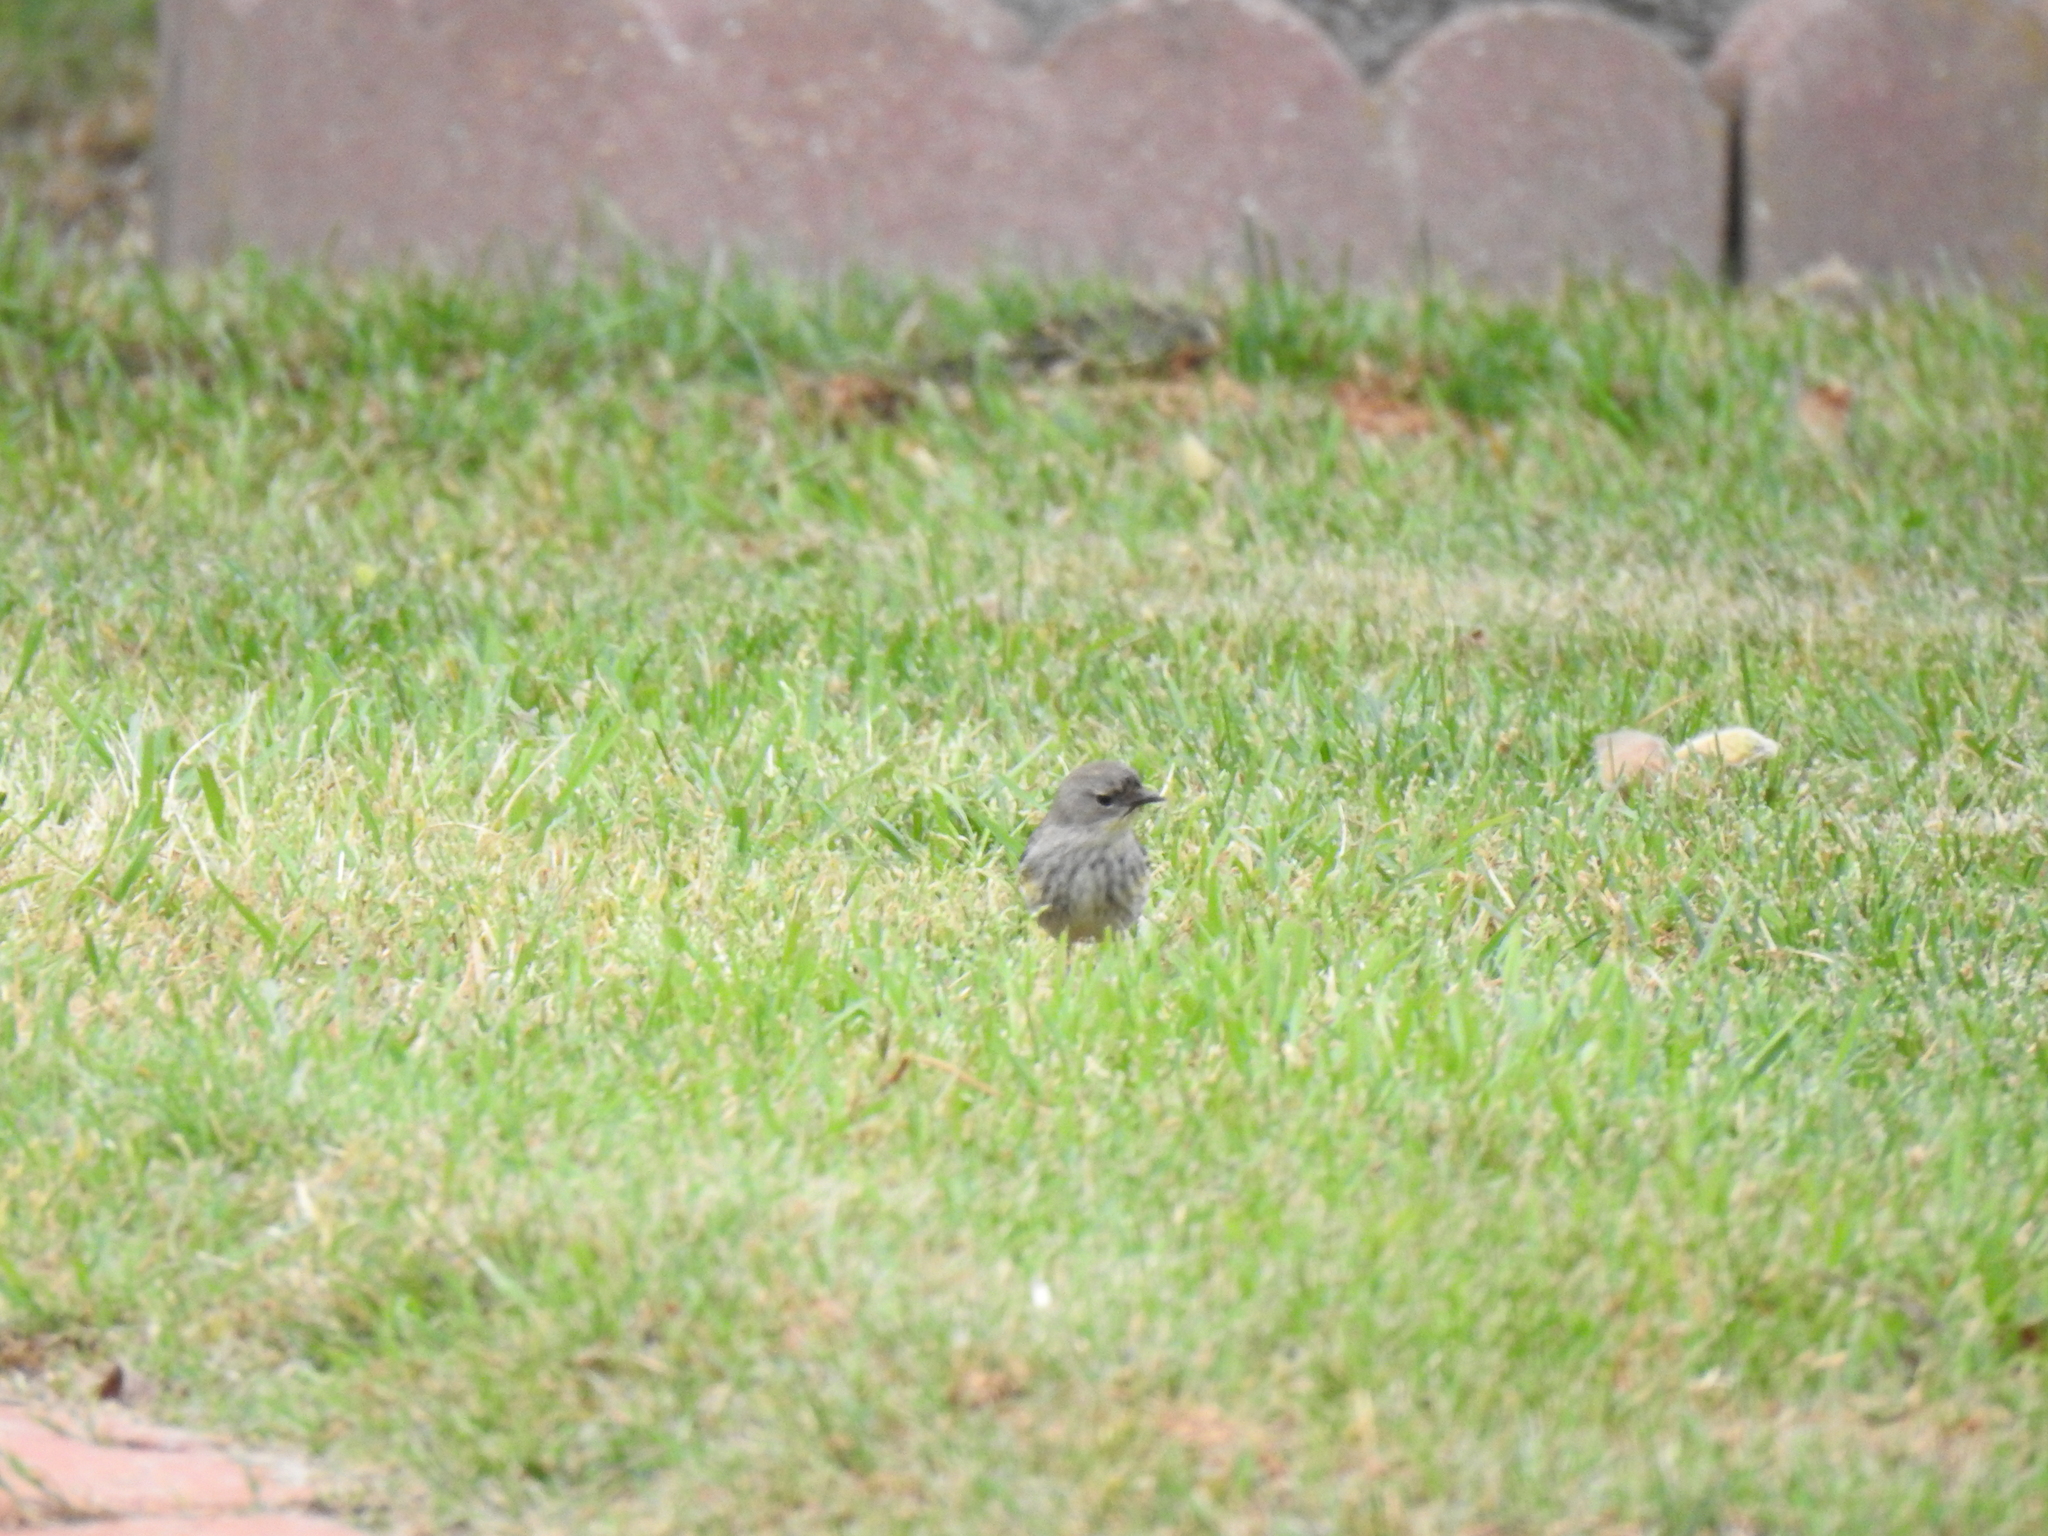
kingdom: Animalia
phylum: Chordata
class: Aves
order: Passeriformes
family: Parulidae
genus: Setophaga
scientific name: Setophaga coronata
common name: Myrtle warbler
